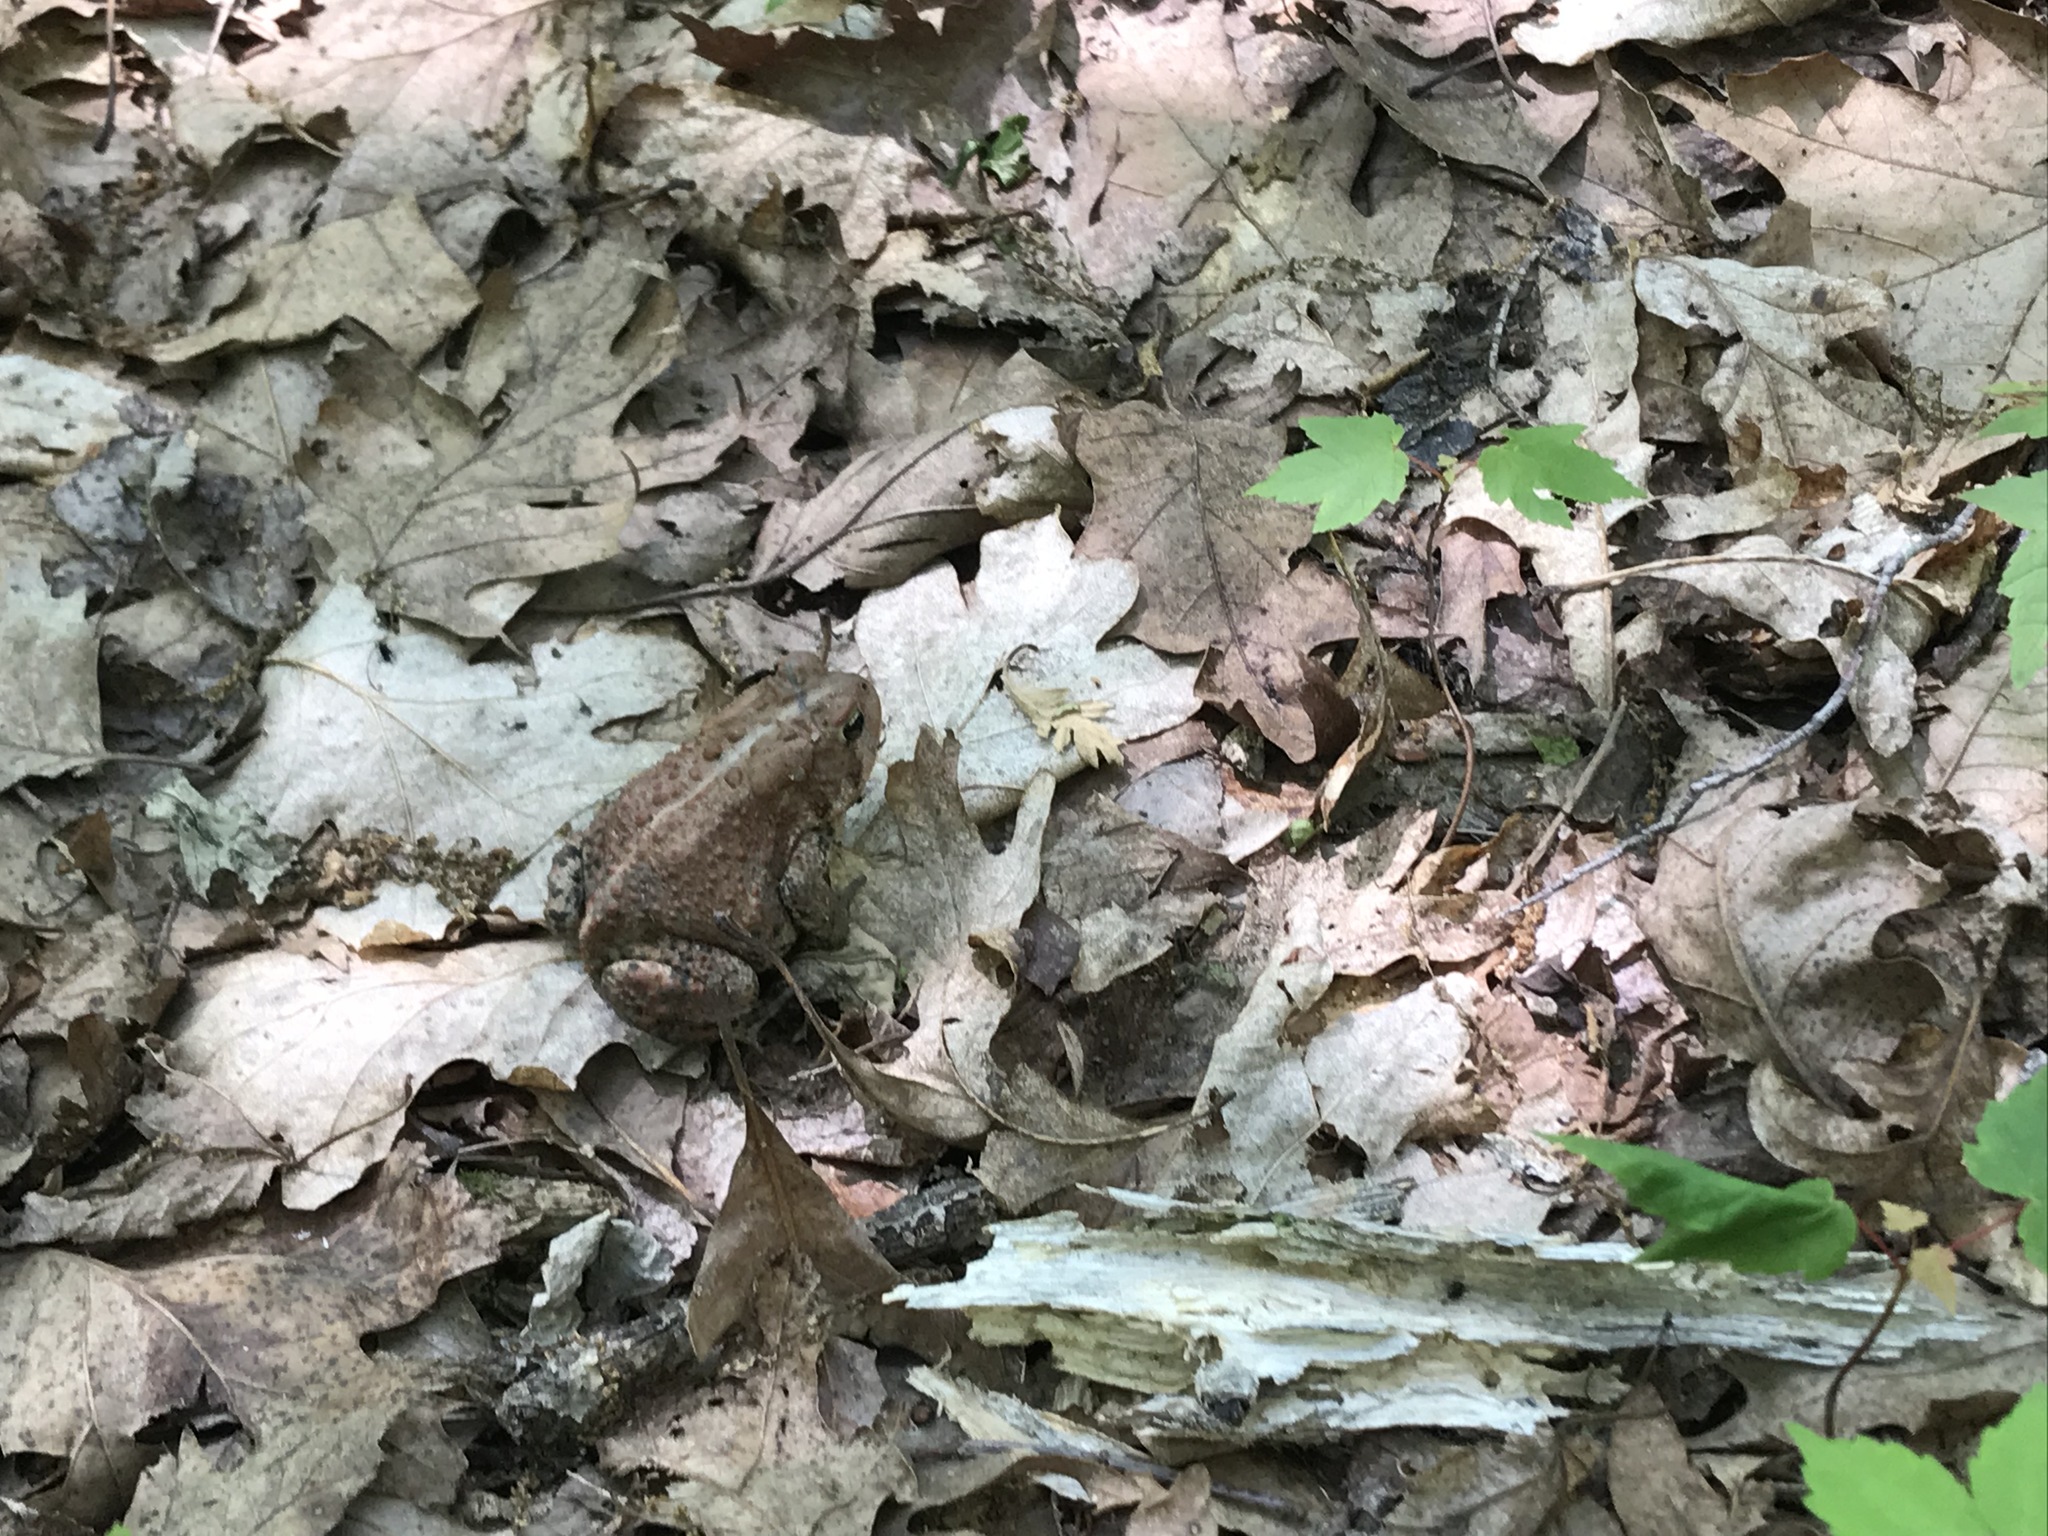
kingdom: Animalia
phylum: Chordata
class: Amphibia
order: Anura
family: Bufonidae
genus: Anaxyrus
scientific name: Anaxyrus americanus
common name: American toad
